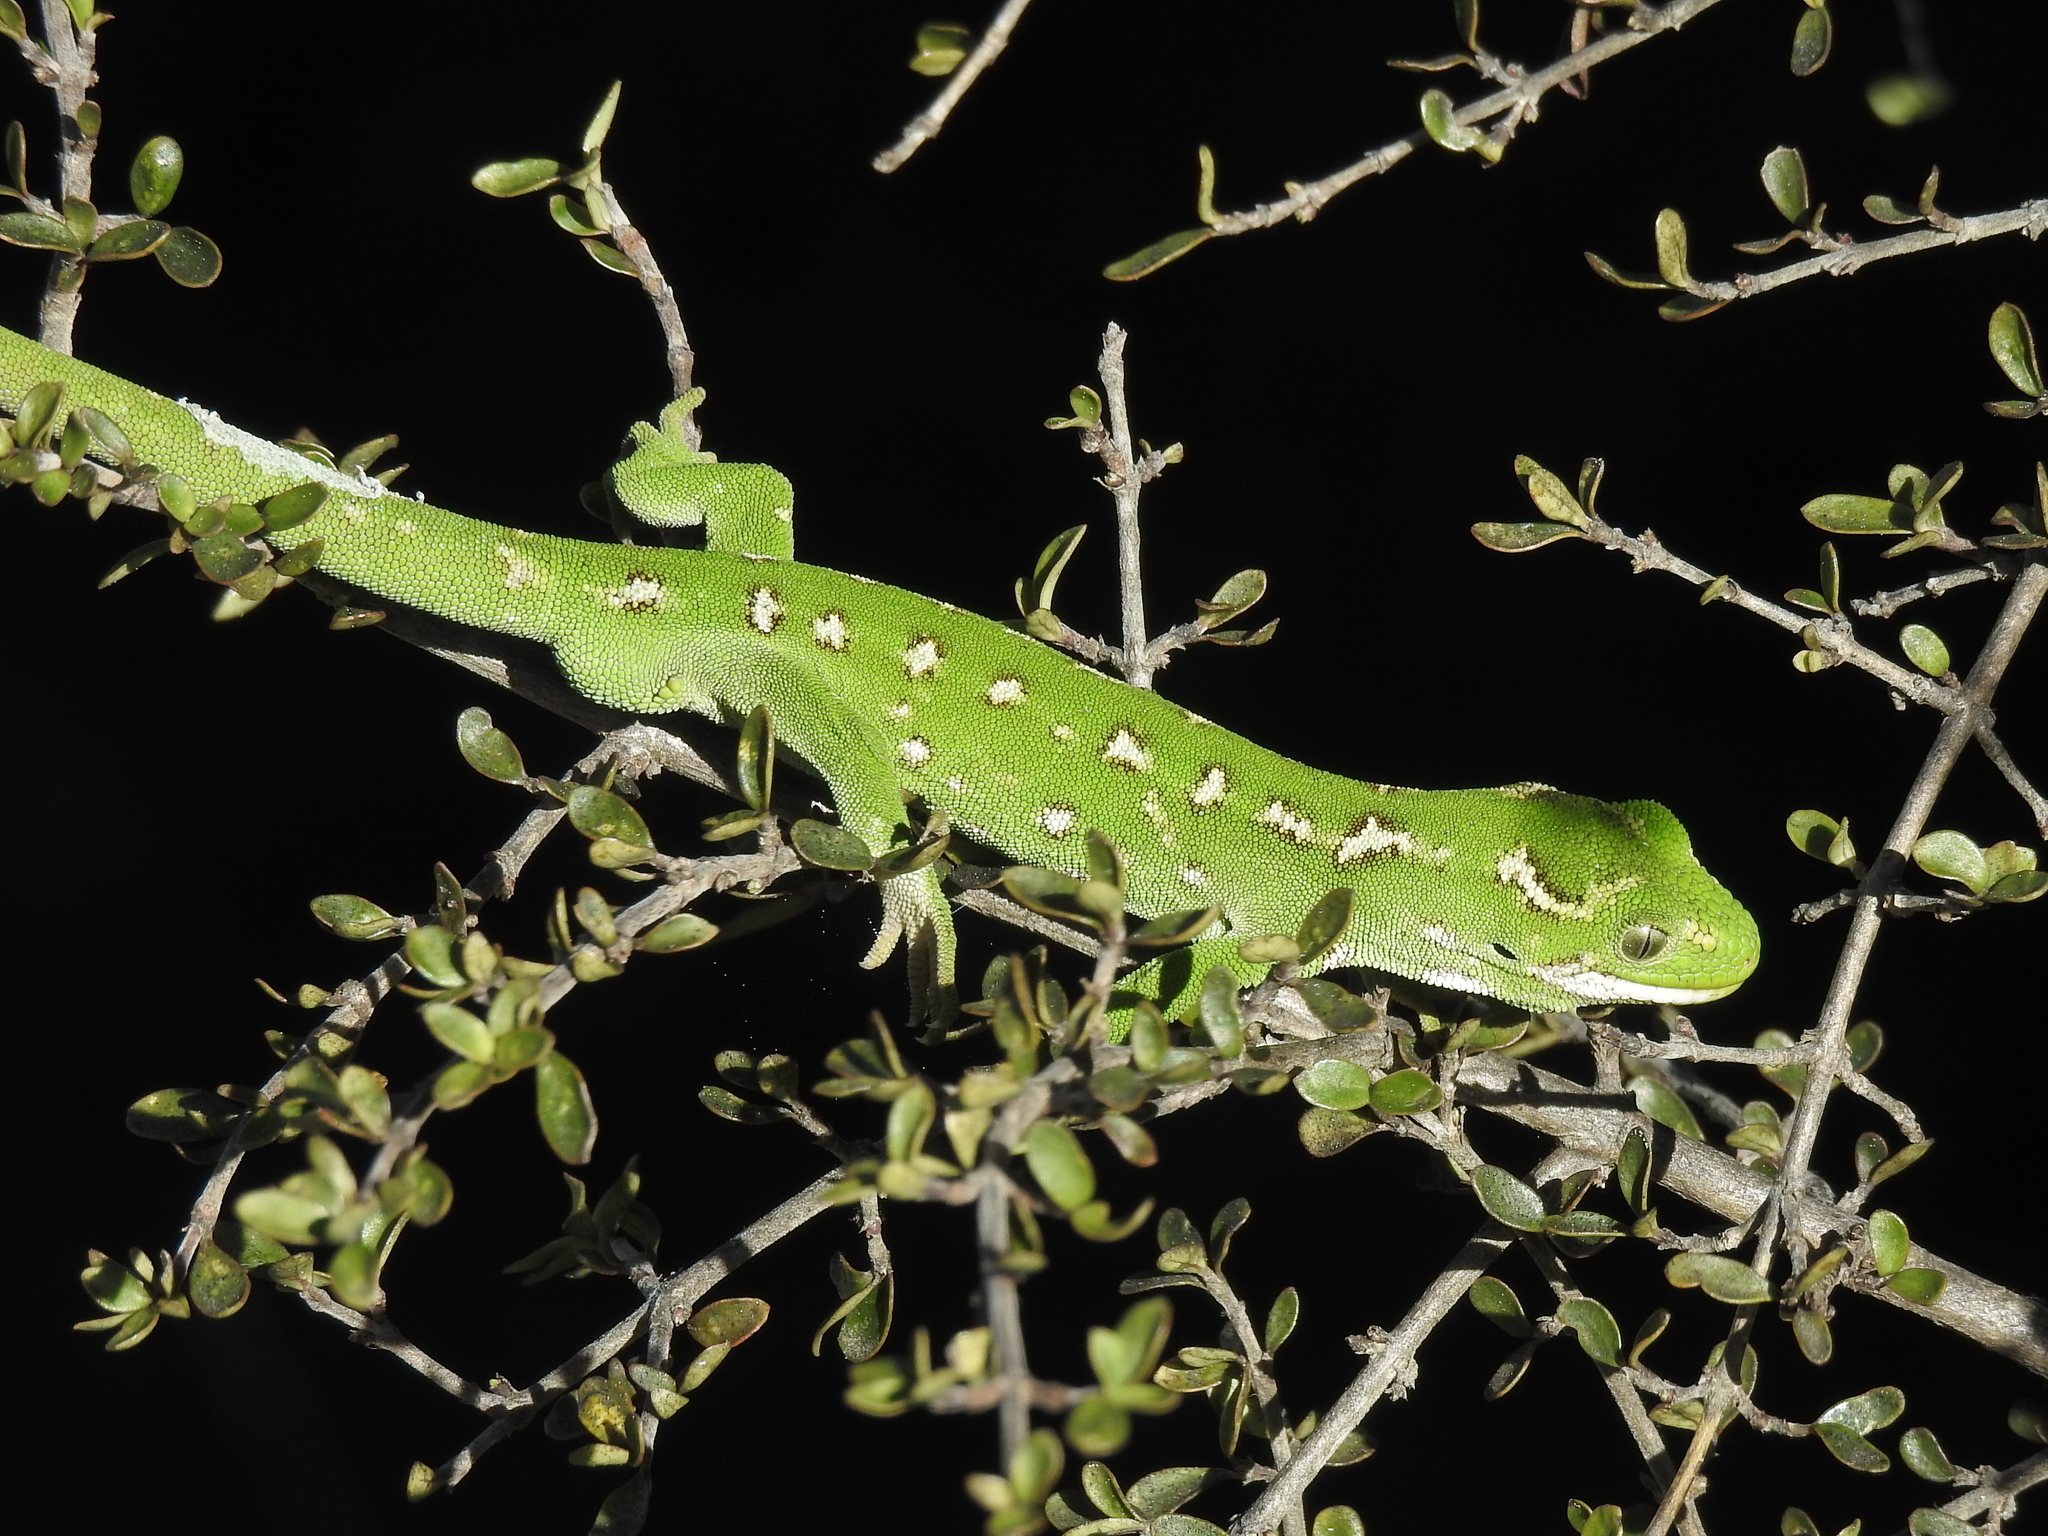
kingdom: Animalia
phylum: Chordata
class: Squamata
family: Diplodactylidae
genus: Naultinus
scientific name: Naultinus gemmeus
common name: Jewelled gecko
